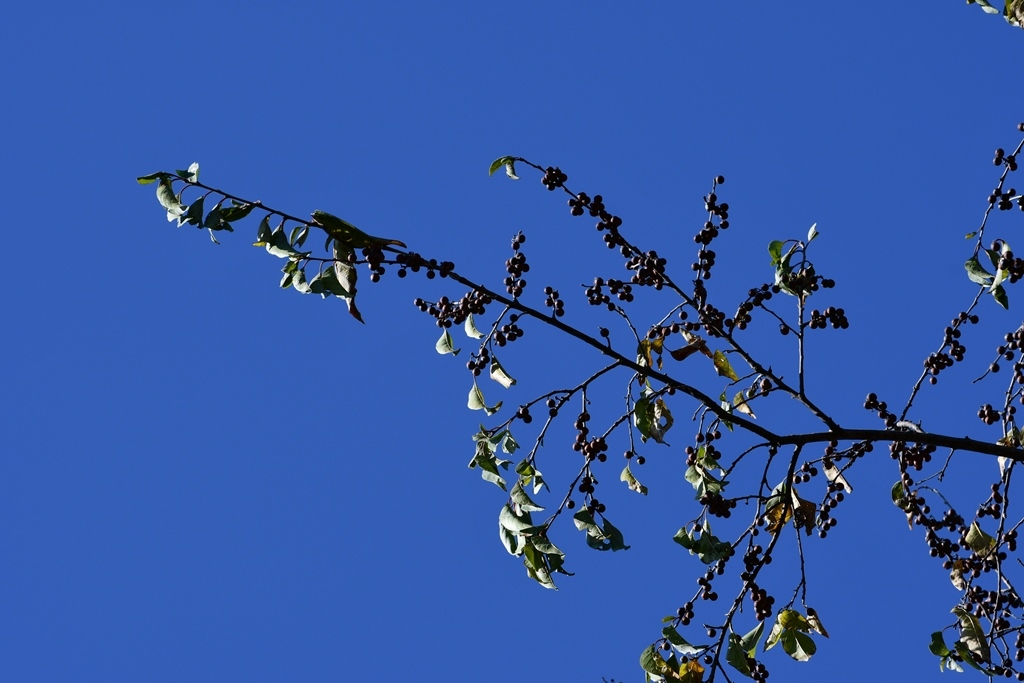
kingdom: Plantae
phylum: Tracheophyta
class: Magnoliopsida
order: Rosales
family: Rhamnaceae
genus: Colubrina
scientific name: Colubrina arborescens
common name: Wild coffee
